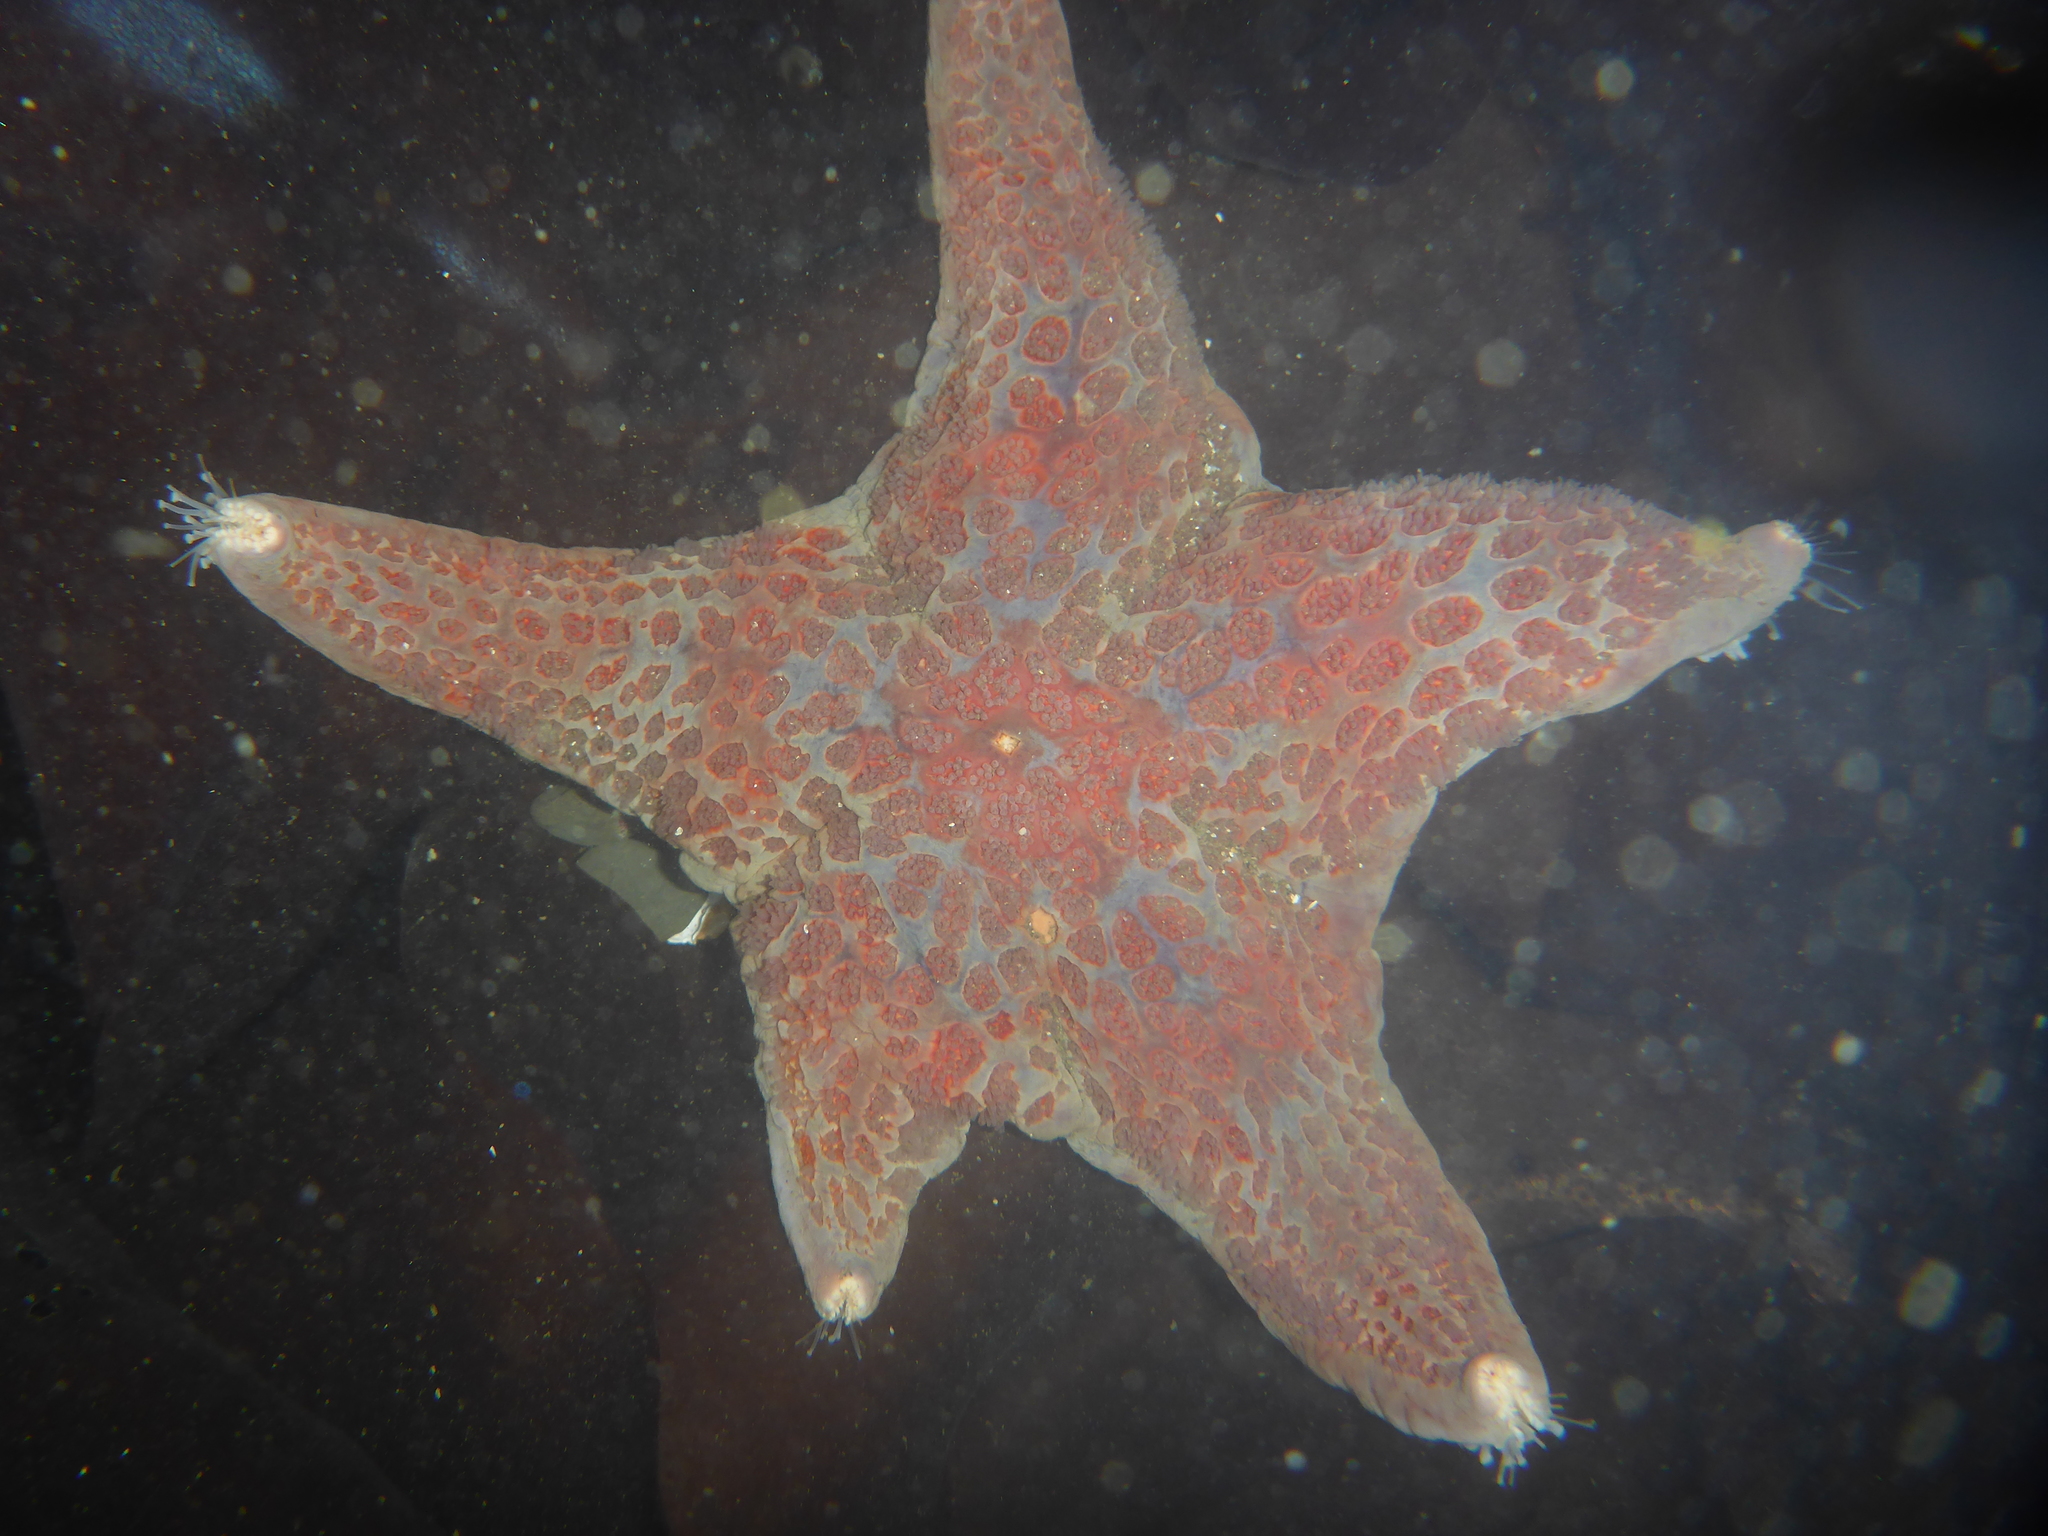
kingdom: Animalia
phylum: Echinodermata
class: Asteroidea
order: Valvatida
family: Asteropseidae
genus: Dermasterias
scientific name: Dermasterias imbricata
